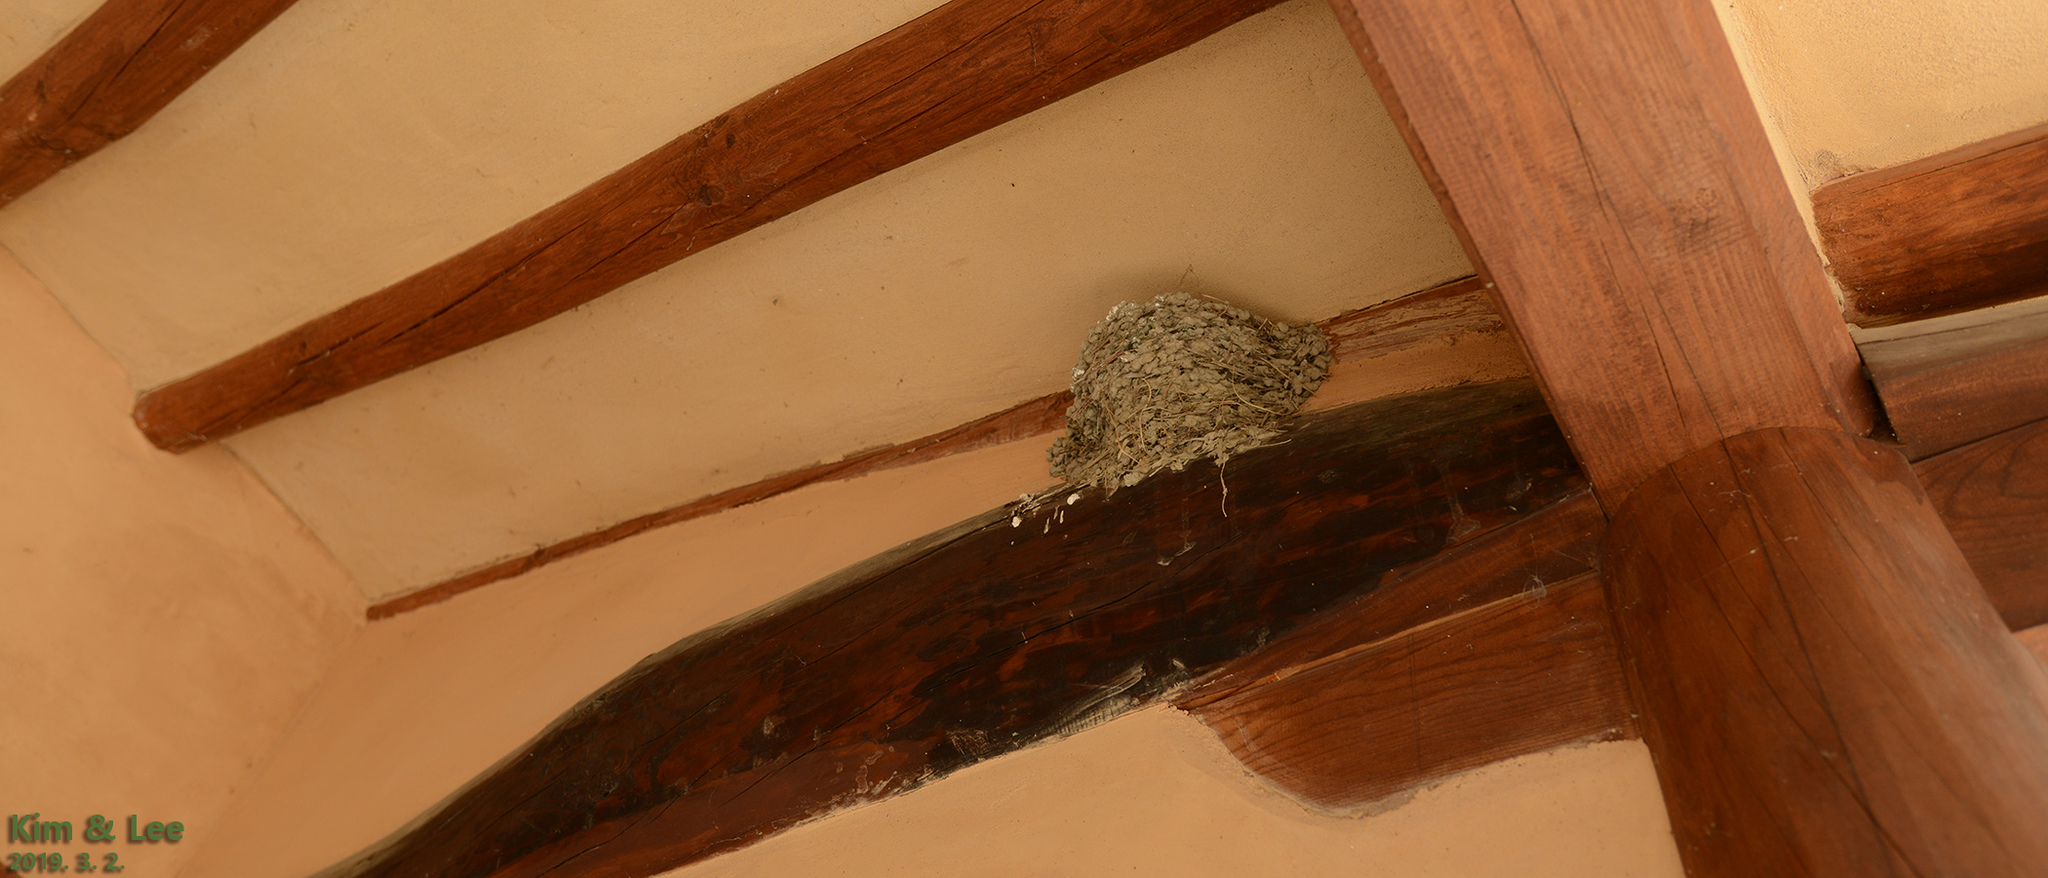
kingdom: Animalia
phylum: Chordata
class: Aves
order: Passeriformes
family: Hirundinidae
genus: Hirundo
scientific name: Hirundo rustica
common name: Barn swallow
